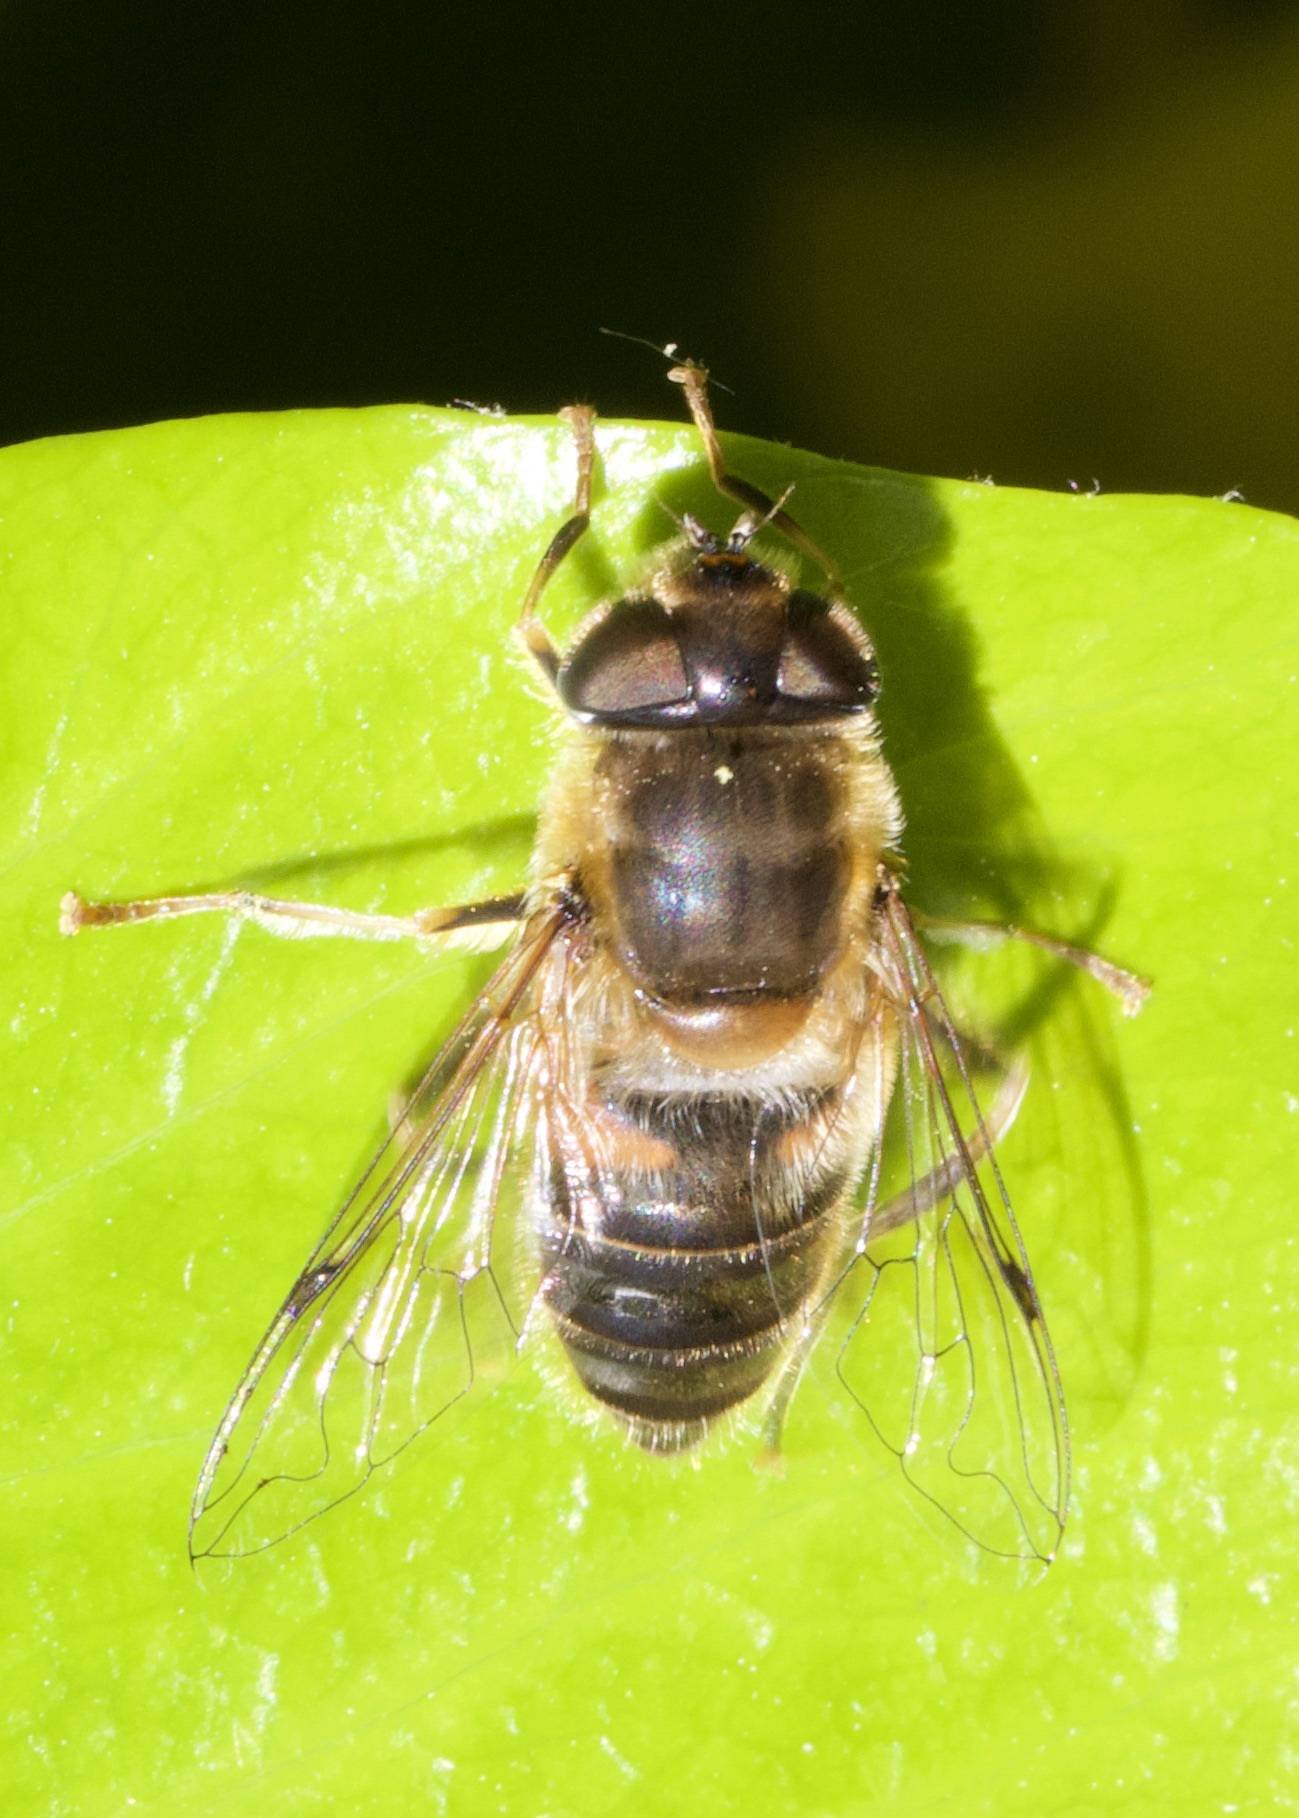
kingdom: Animalia
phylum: Arthropoda
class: Insecta
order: Diptera
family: Syrphidae
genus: Eristalis
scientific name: Eristalis pertinax
